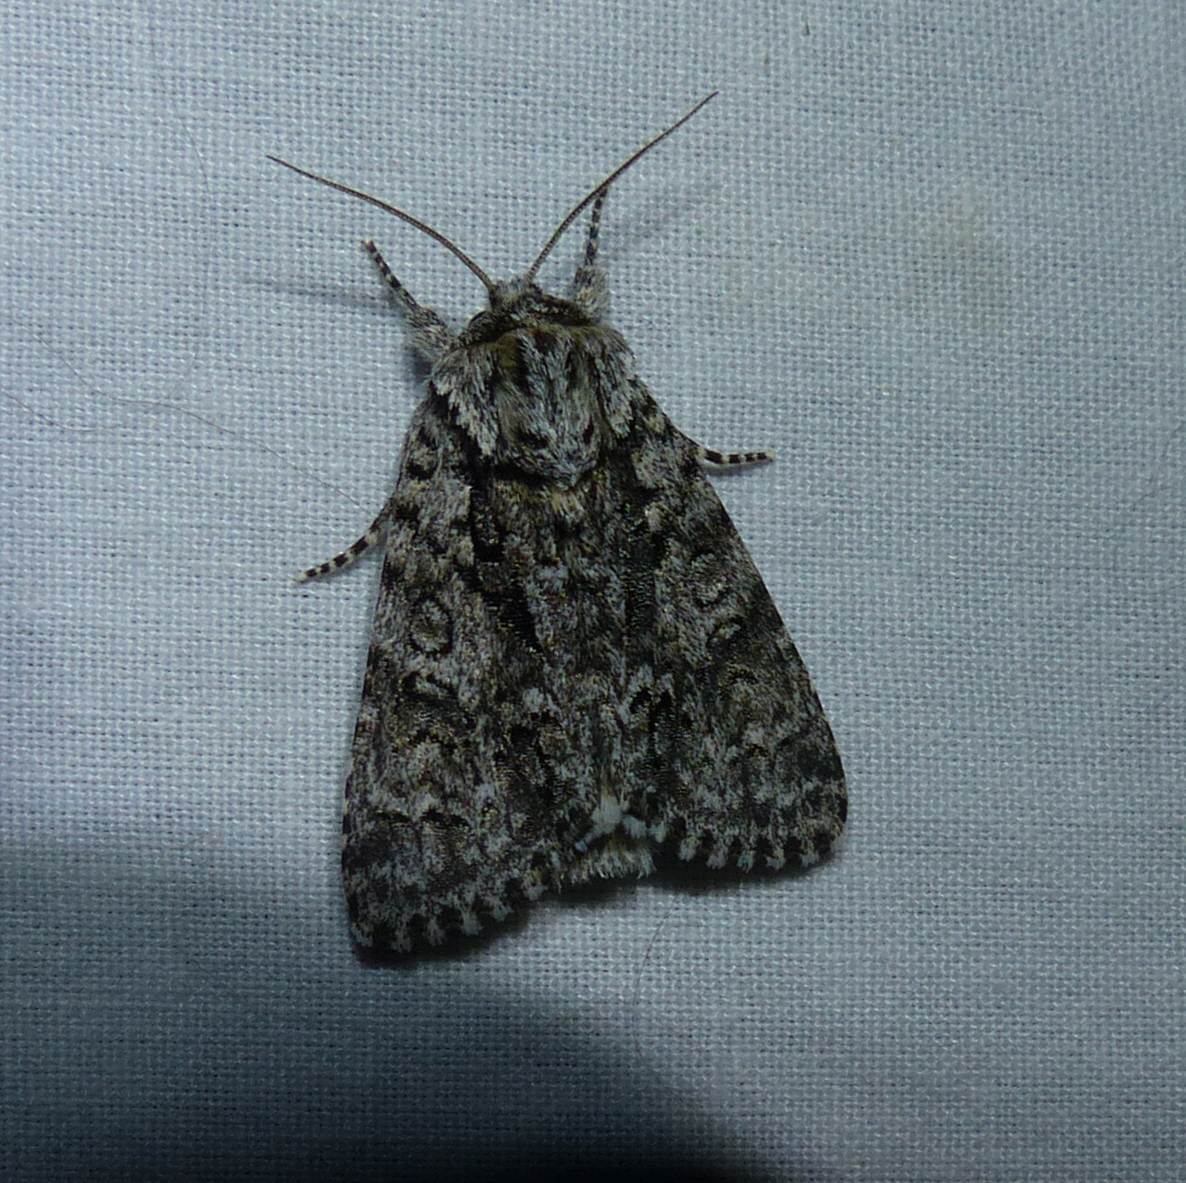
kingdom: Animalia
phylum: Arthropoda
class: Insecta
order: Lepidoptera
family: Noctuidae
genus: Acronicta
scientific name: Acronicta impressa
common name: Impressed dagger
